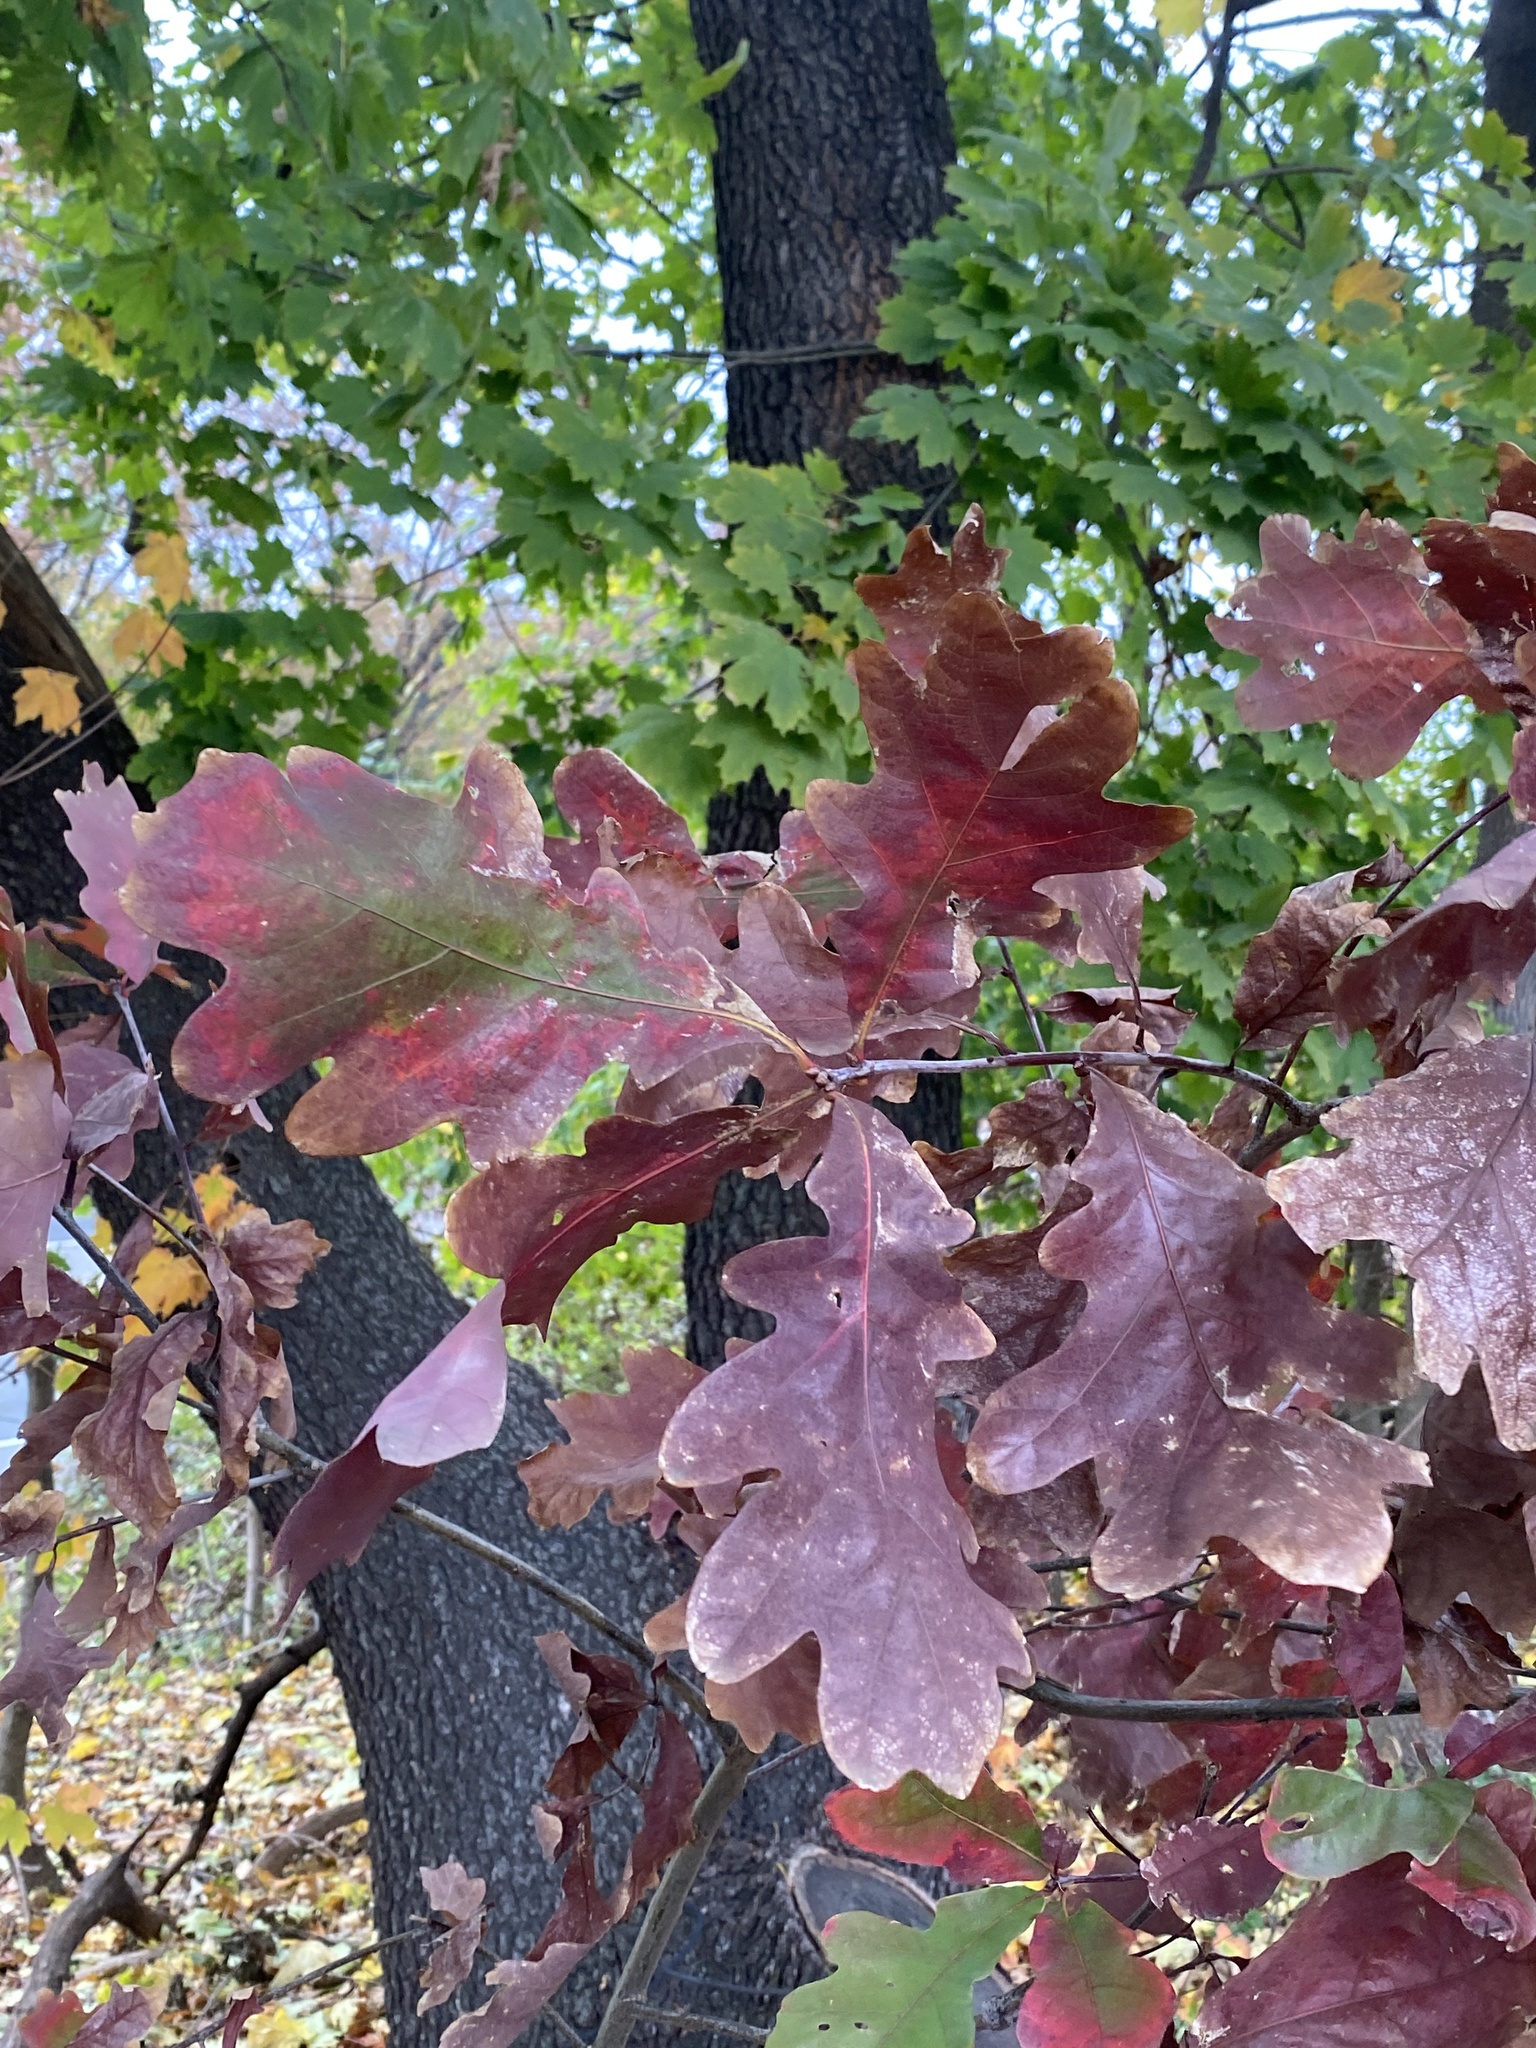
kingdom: Plantae
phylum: Tracheophyta
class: Magnoliopsida
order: Fagales
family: Fagaceae
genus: Quercus
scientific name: Quercus alba
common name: White oak
